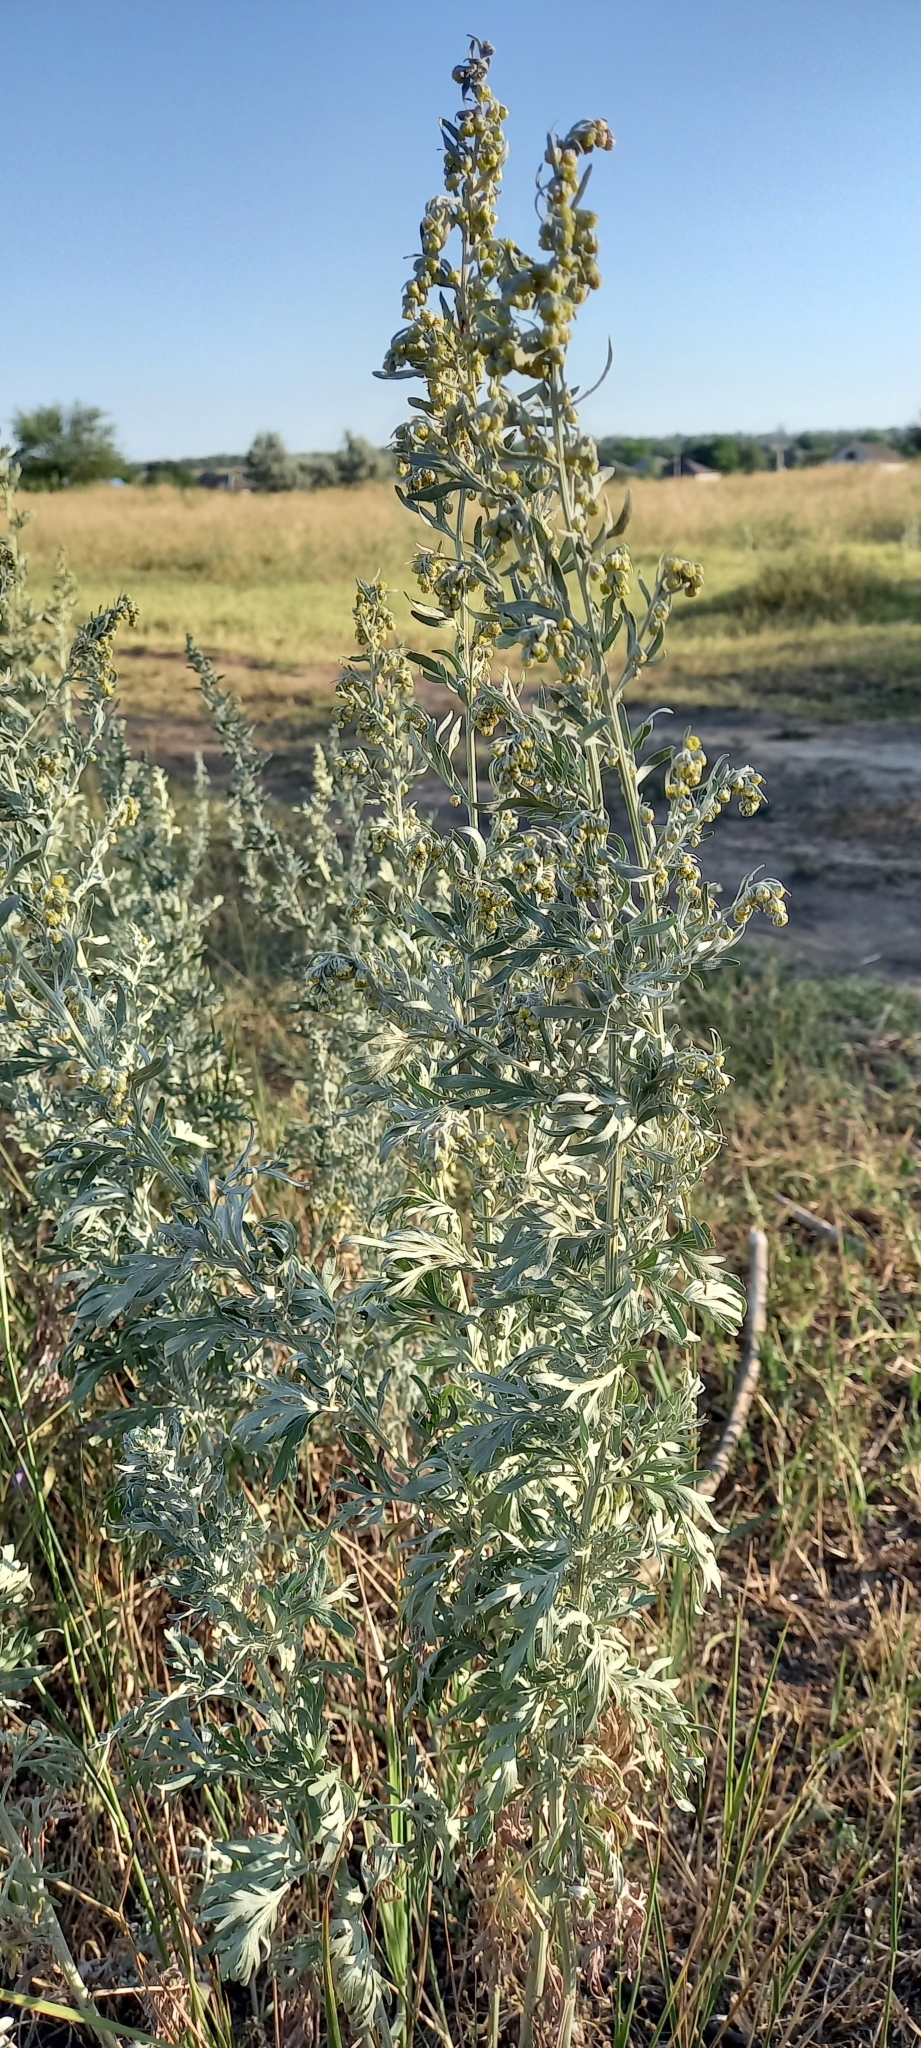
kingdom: Plantae
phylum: Tracheophyta
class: Magnoliopsida
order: Asterales
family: Asteraceae
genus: Artemisia
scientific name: Artemisia absinthium
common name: Wormwood
